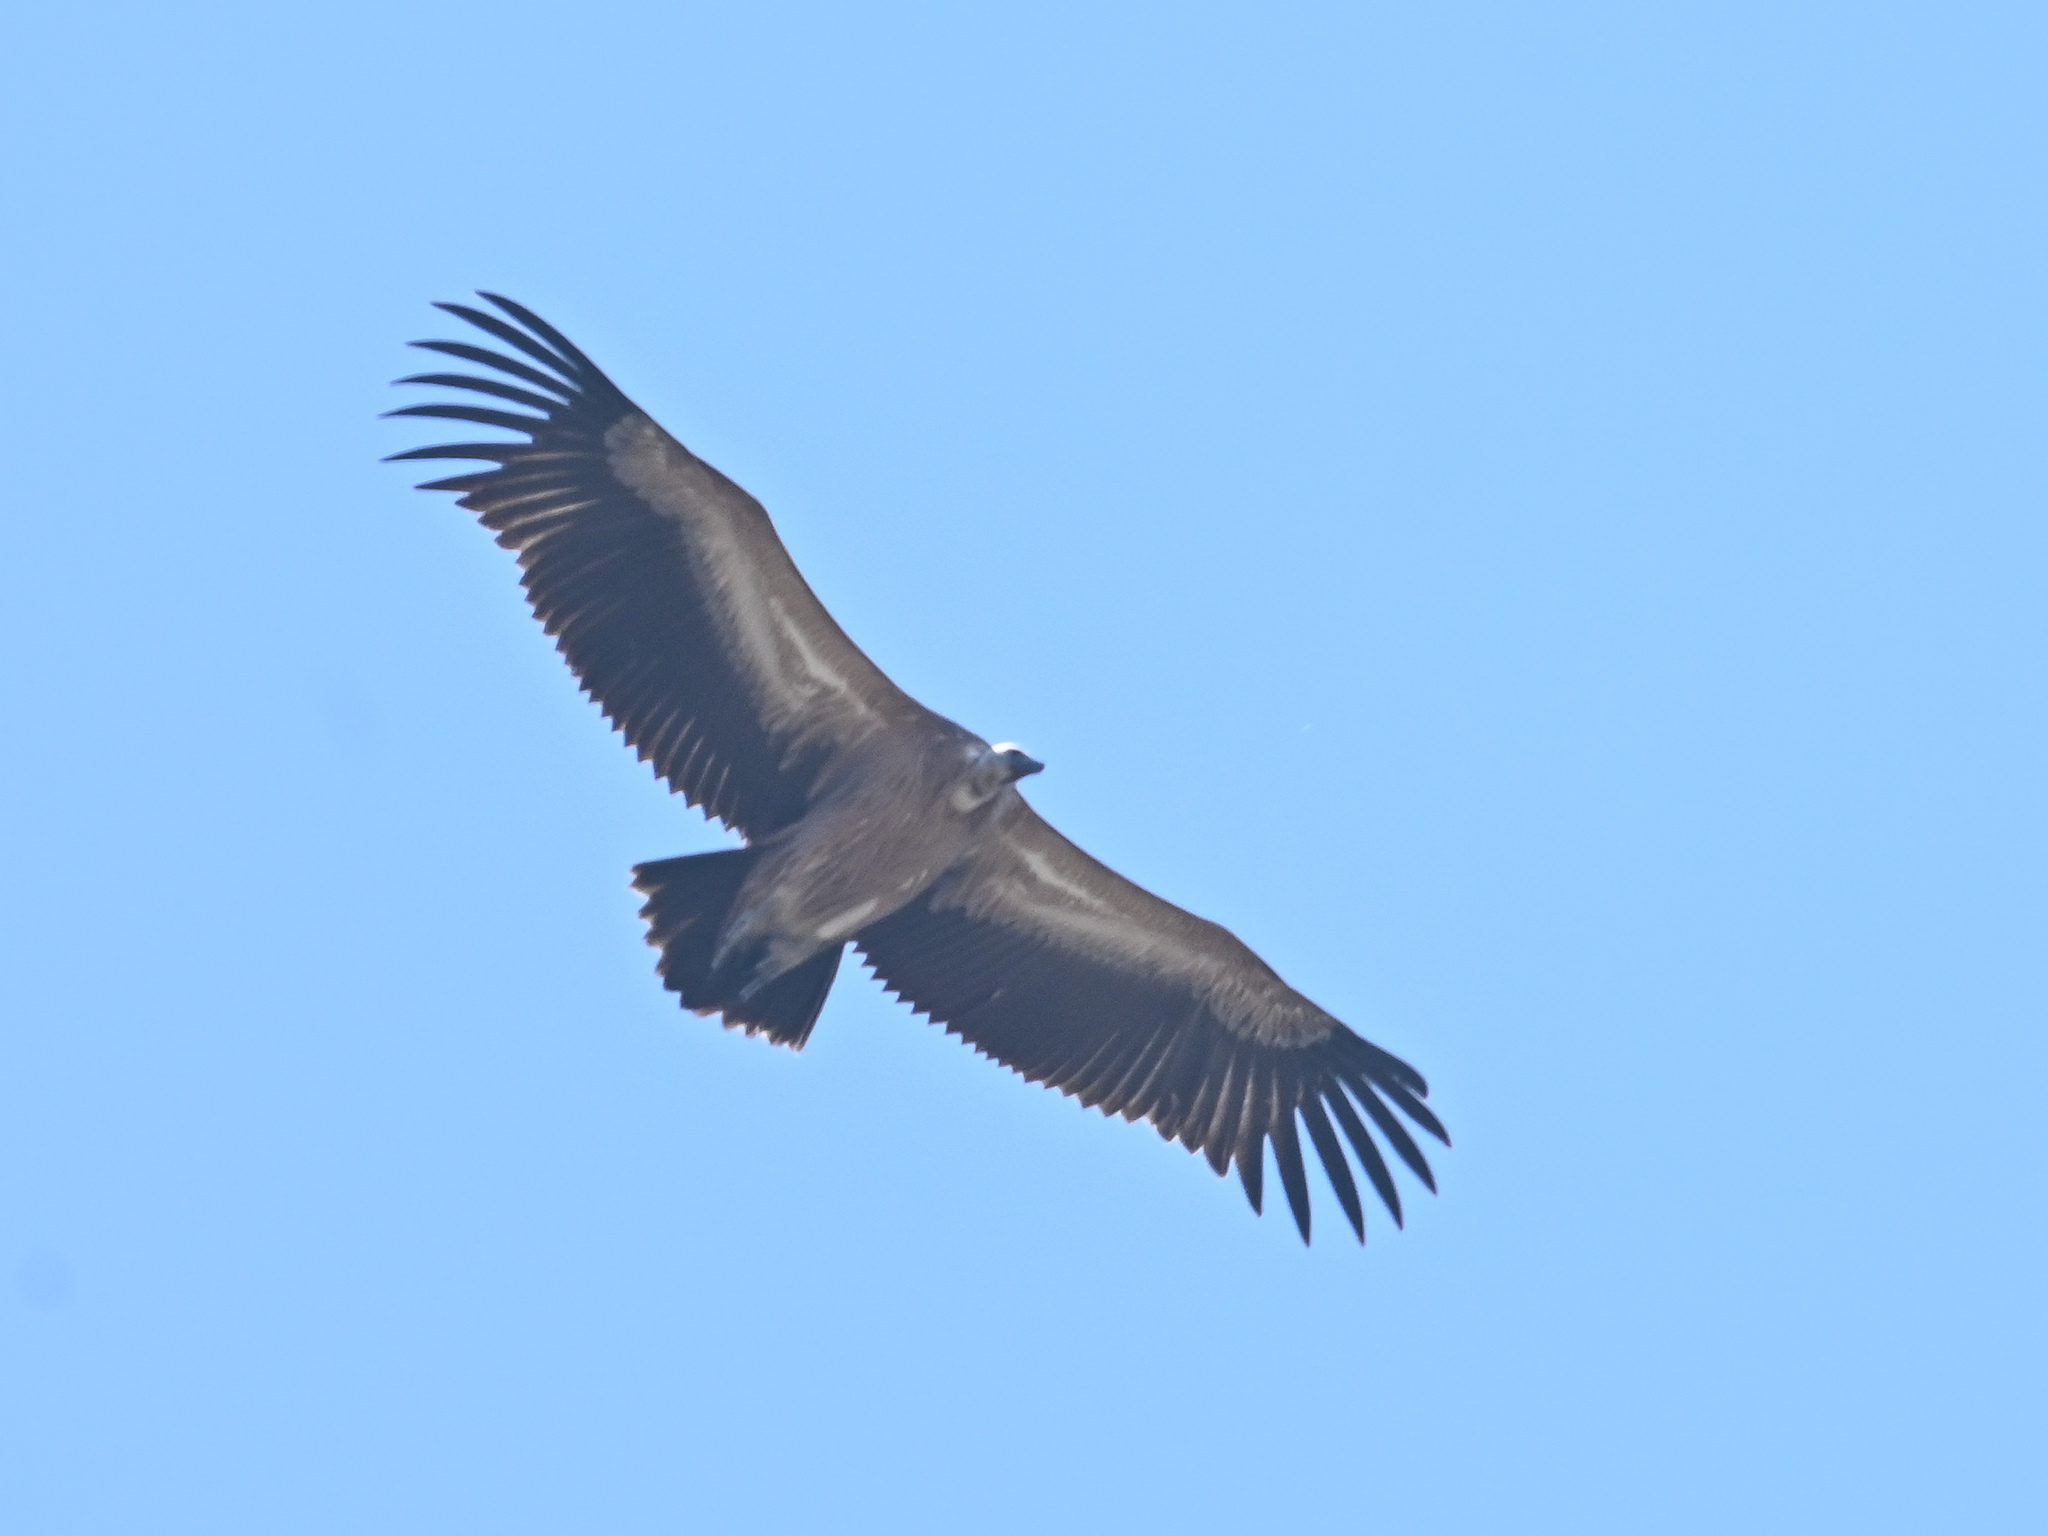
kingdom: Animalia
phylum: Chordata
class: Aves
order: Accipitriformes
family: Accipitridae
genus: Gyps
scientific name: Gyps fulvus
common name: Griffon vulture
